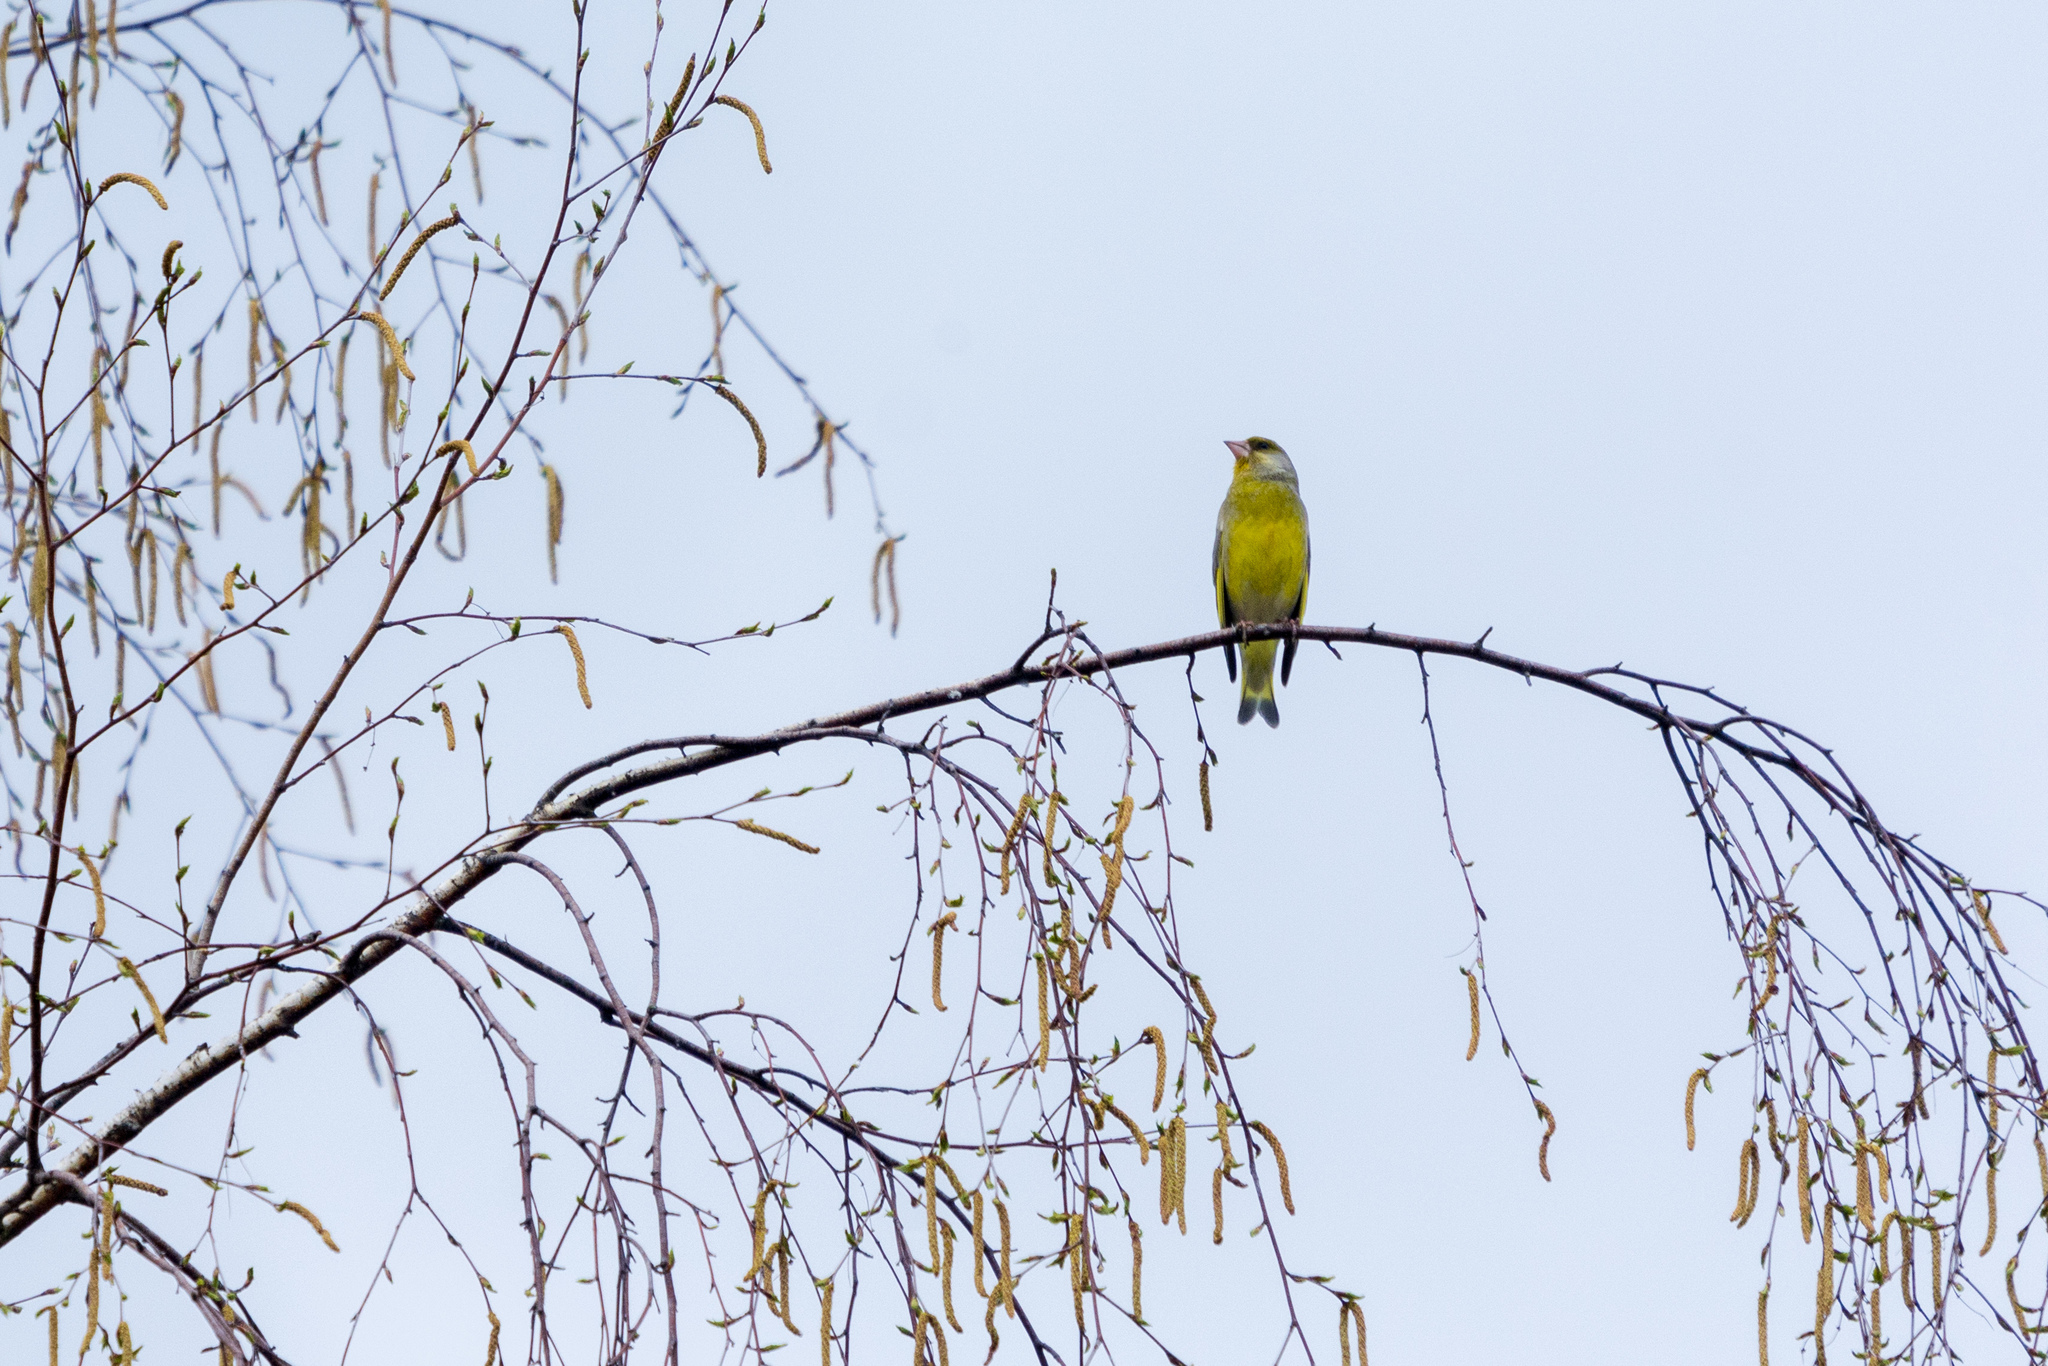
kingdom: Plantae
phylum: Tracheophyta
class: Liliopsida
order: Poales
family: Poaceae
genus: Chloris
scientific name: Chloris chloris
